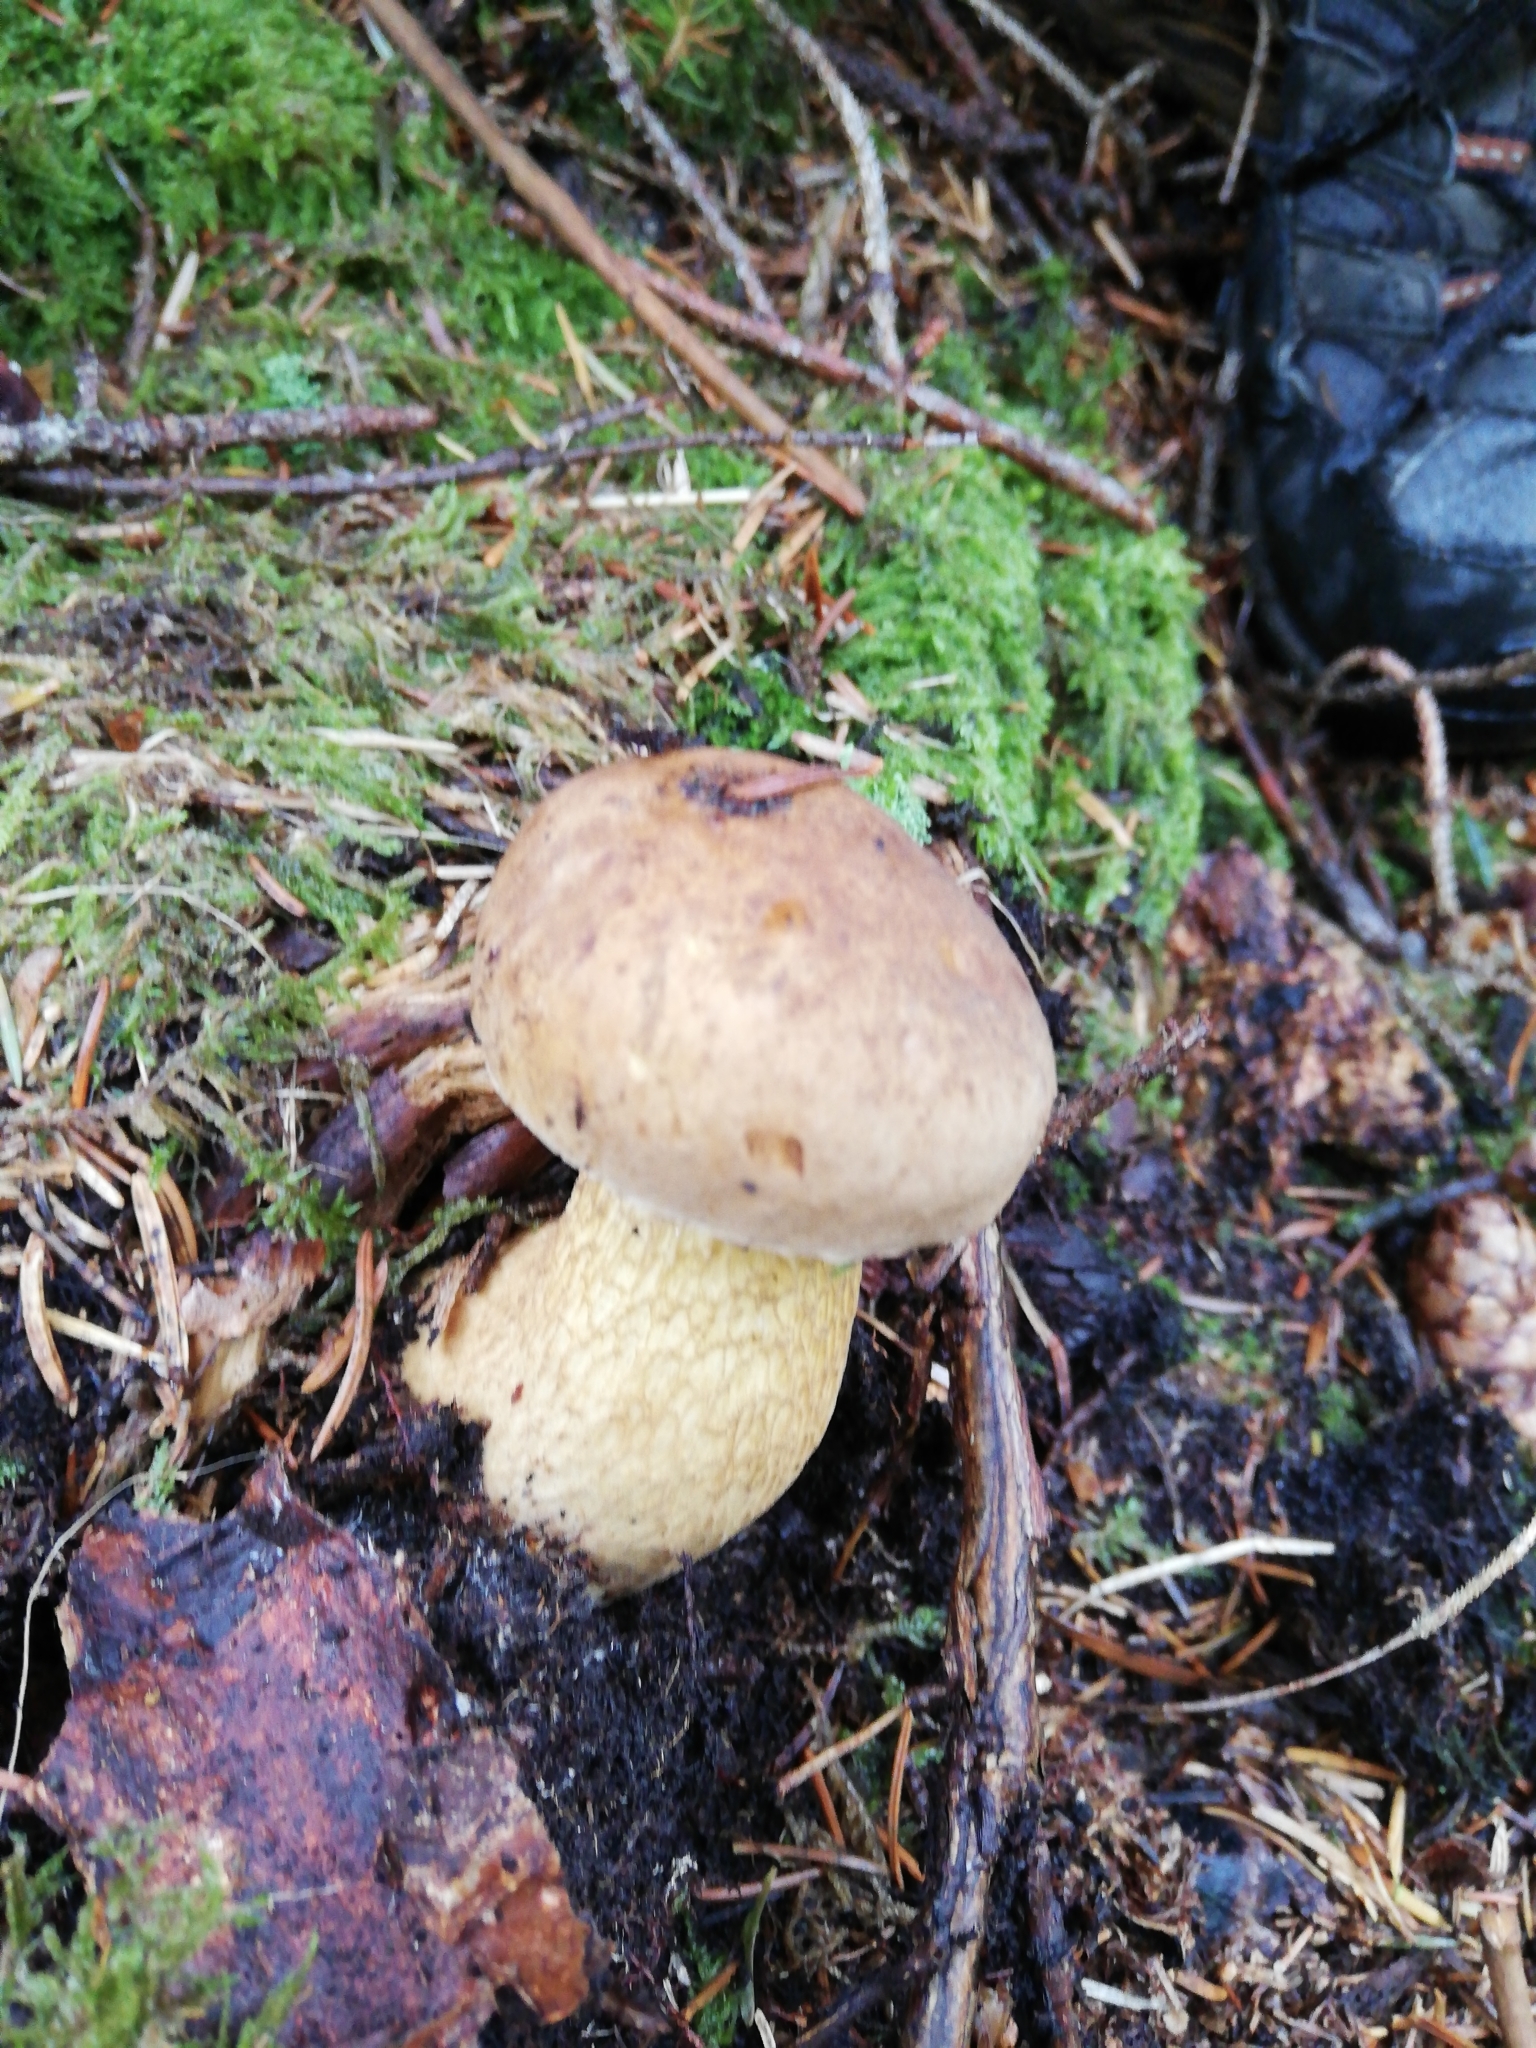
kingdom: Fungi
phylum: Basidiomycota
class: Agaricomycetes
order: Boletales
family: Boletaceae
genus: Tylopilus
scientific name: Tylopilus felleus
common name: Bitter bolete
